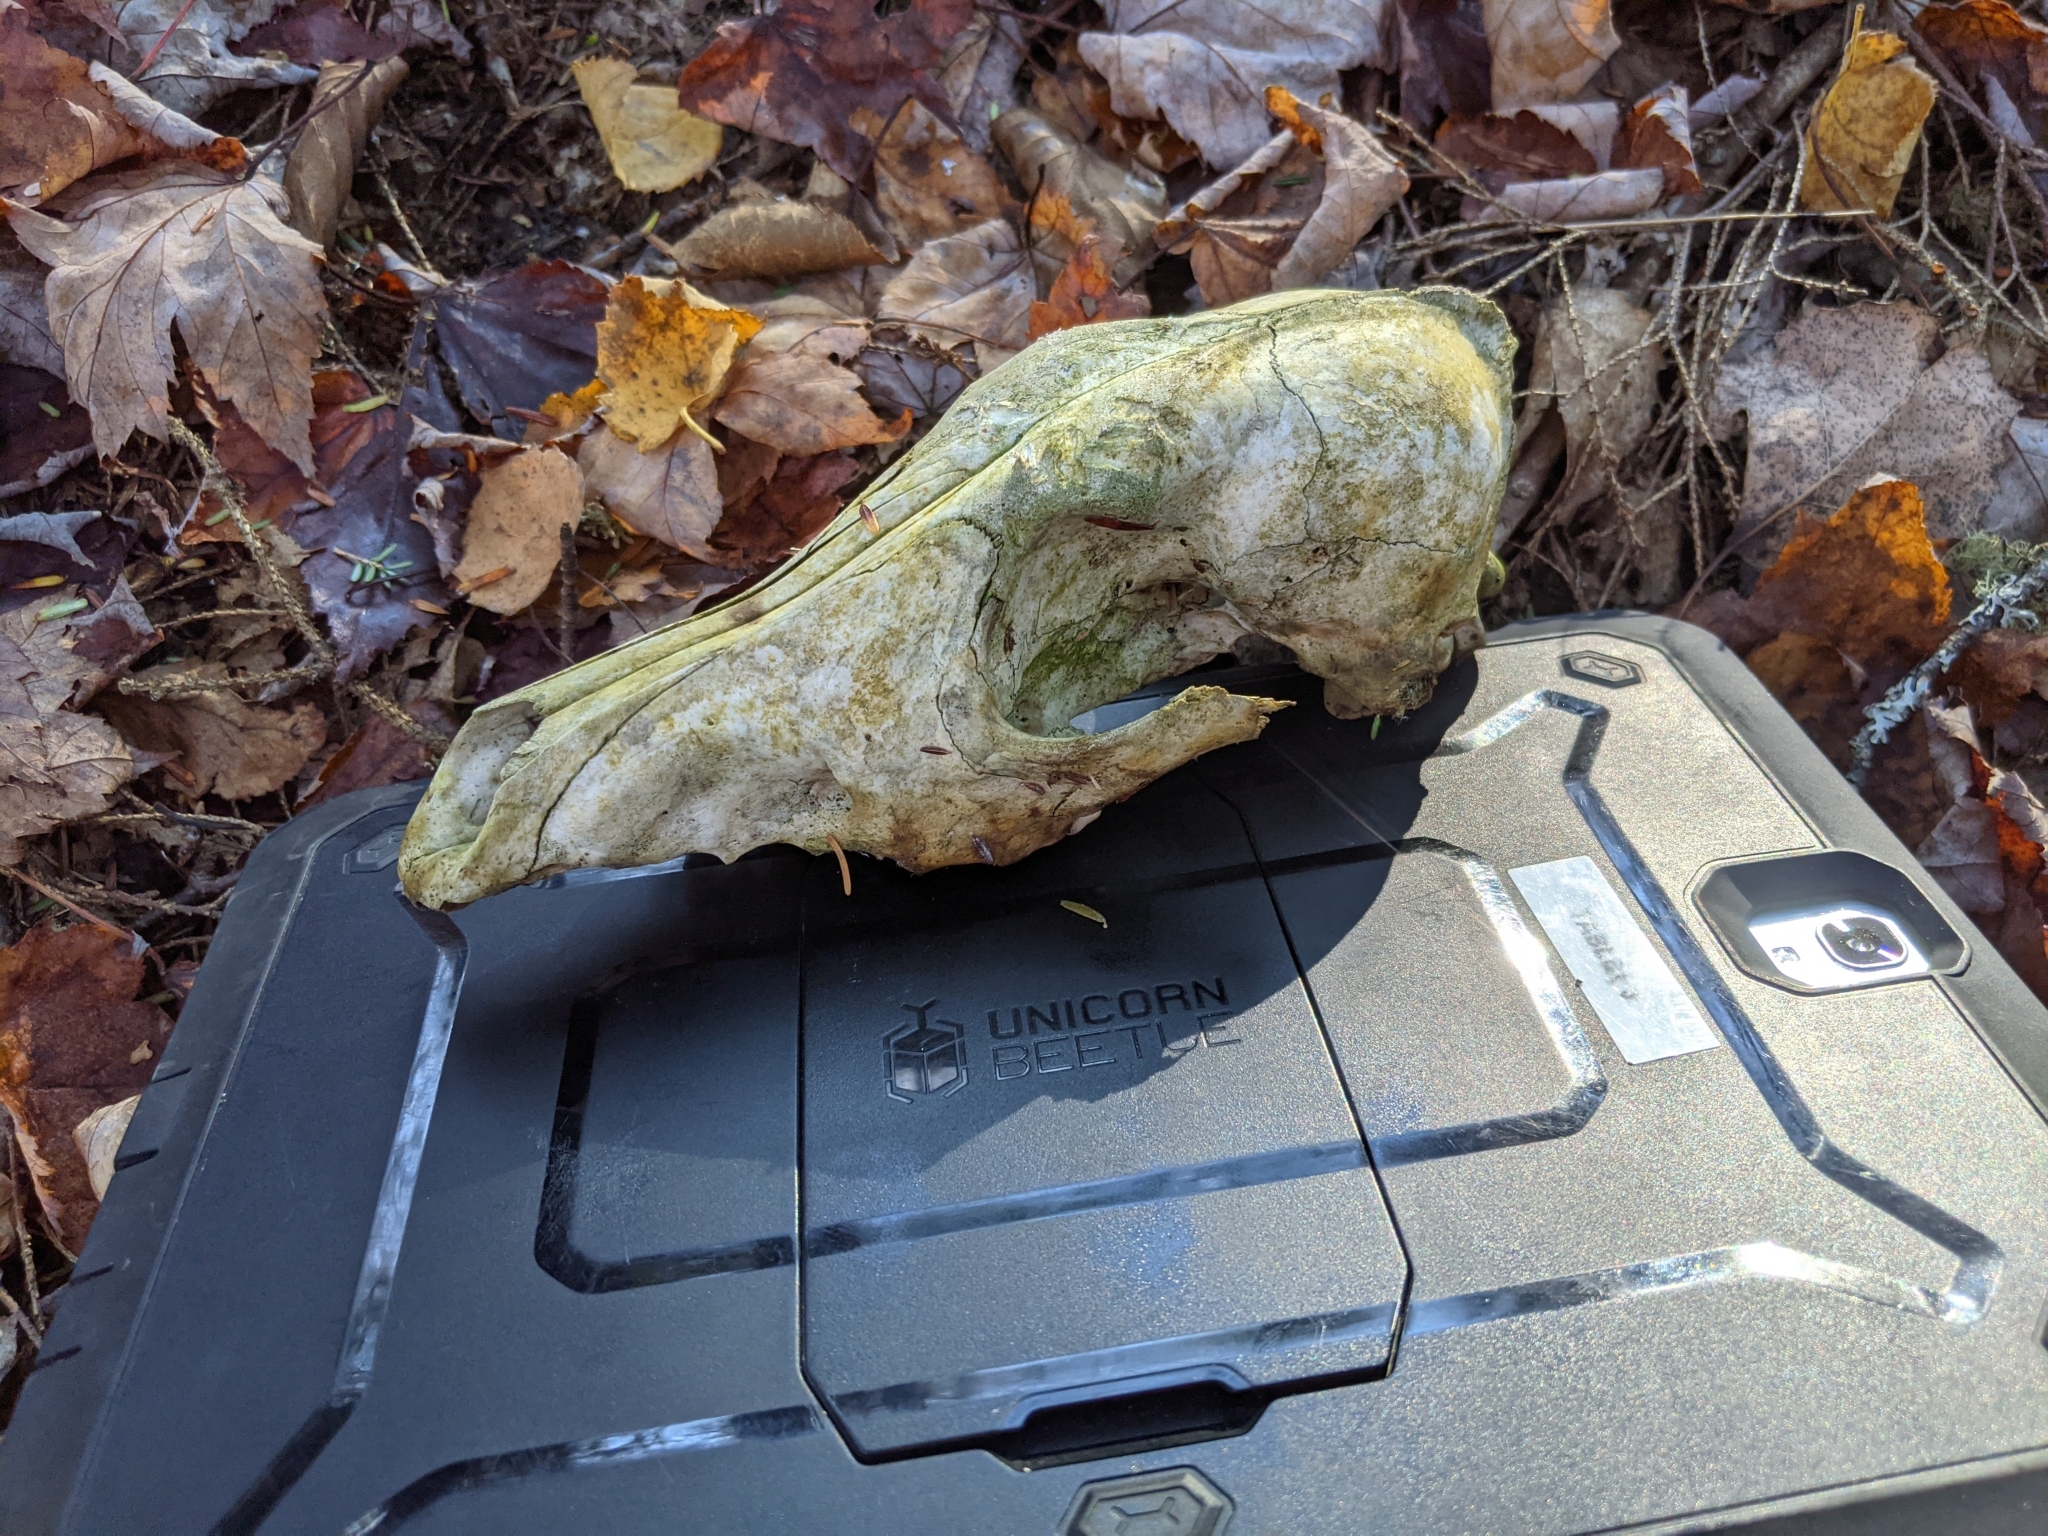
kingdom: Animalia
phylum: Chordata
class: Mammalia
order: Carnivora
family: Canidae
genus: Canis
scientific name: Canis latrans
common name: Coyote
